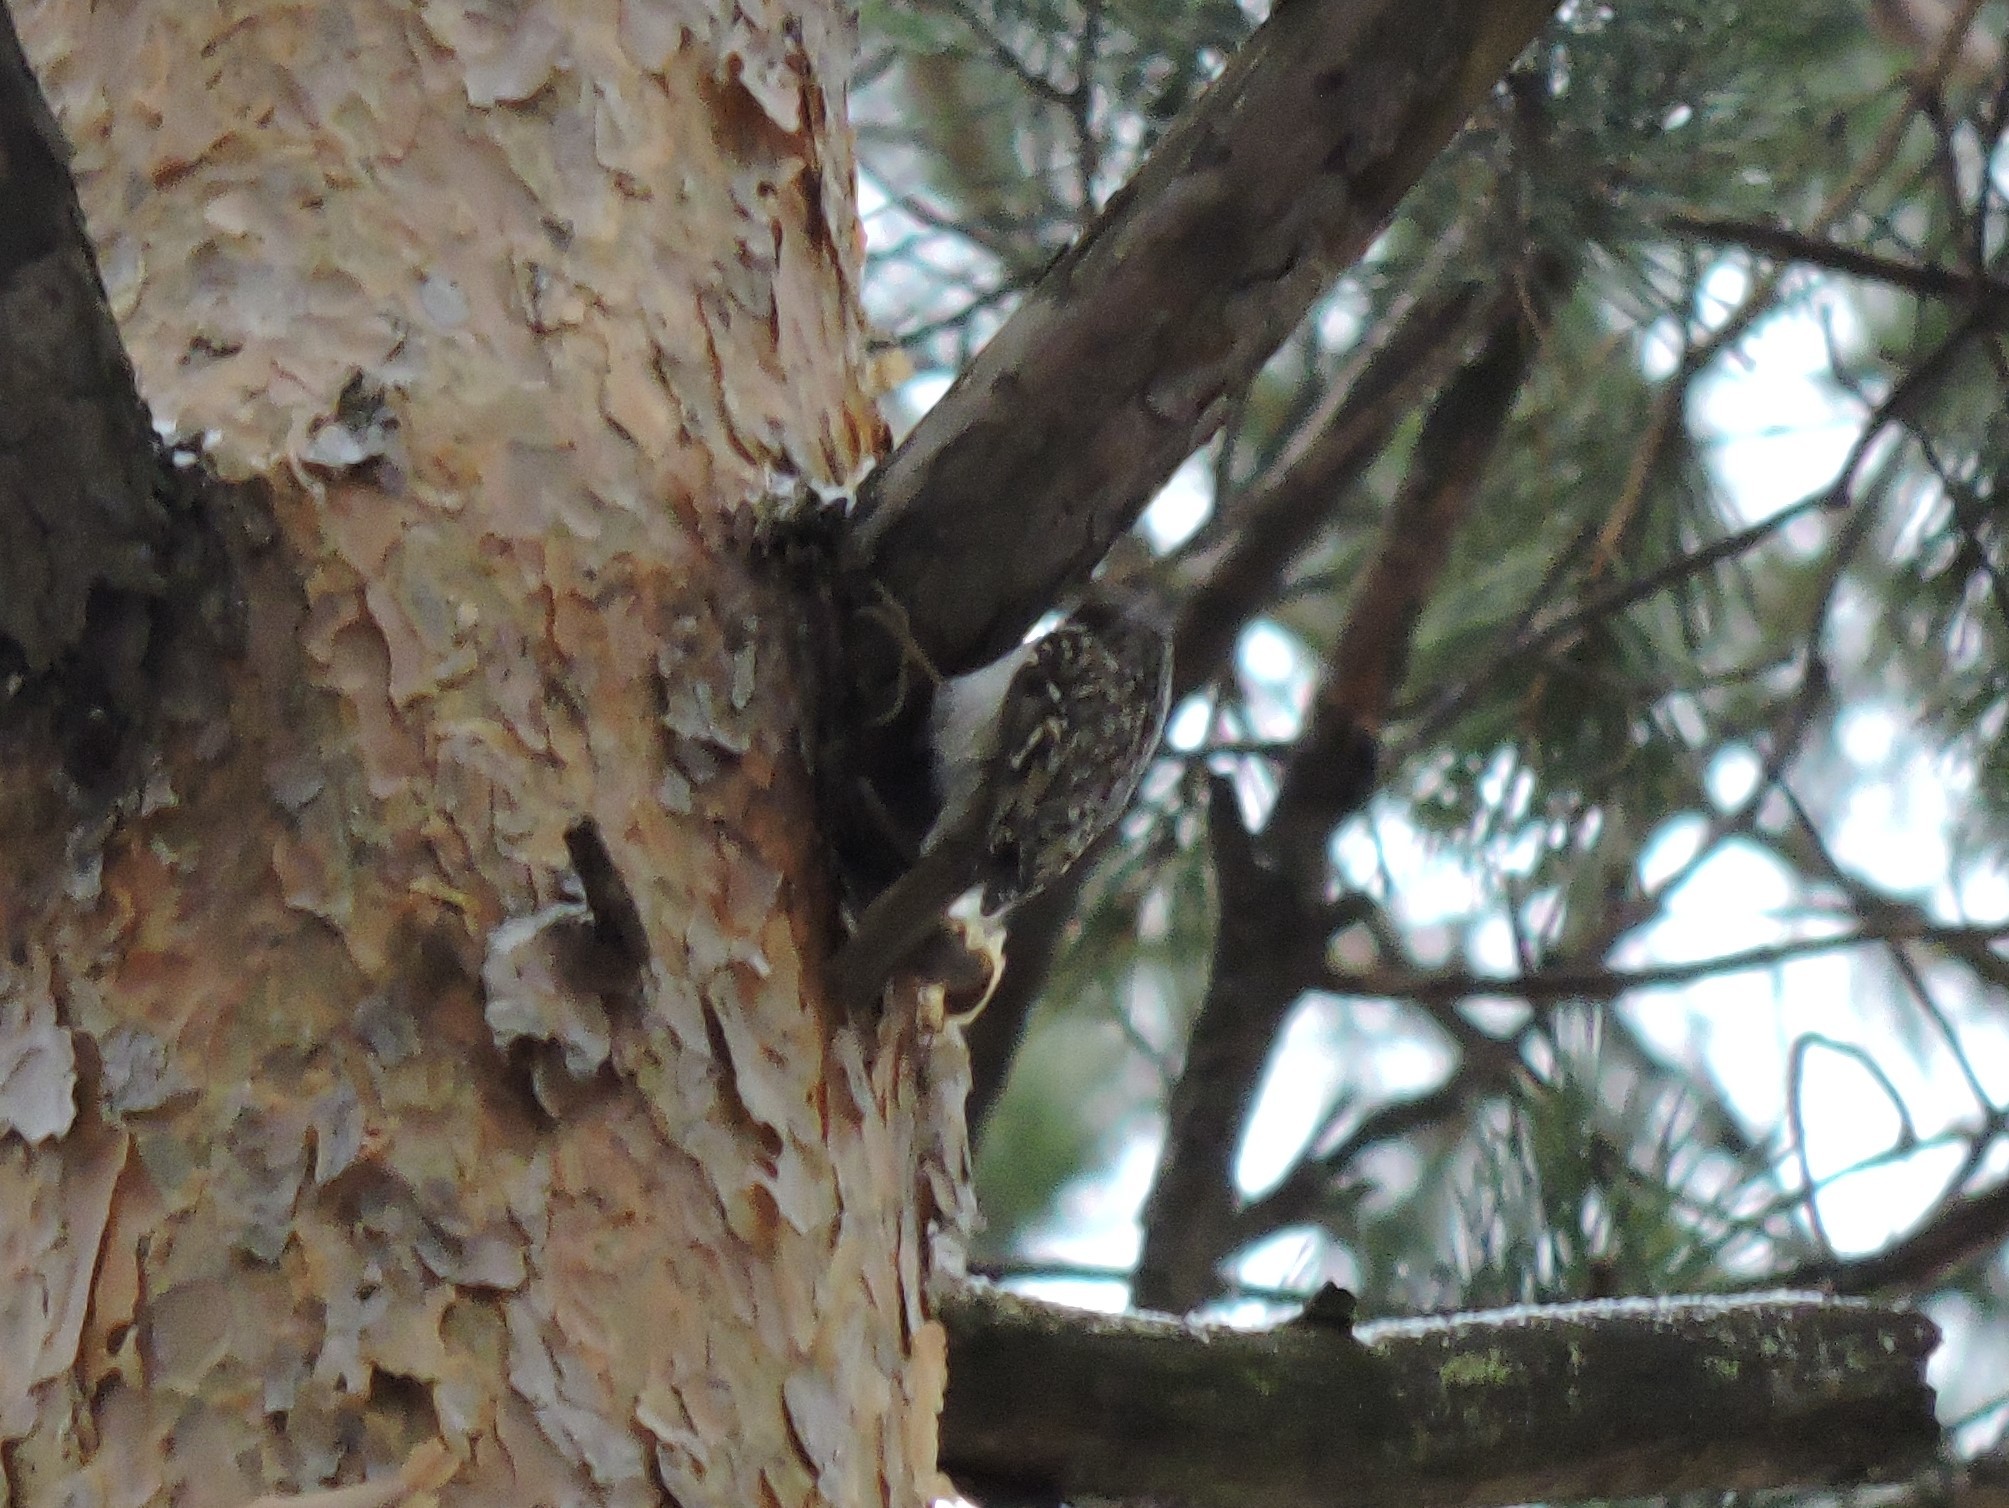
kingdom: Animalia
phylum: Chordata
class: Aves
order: Passeriformes
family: Certhiidae
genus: Certhia
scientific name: Certhia familiaris
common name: Eurasian treecreeper
